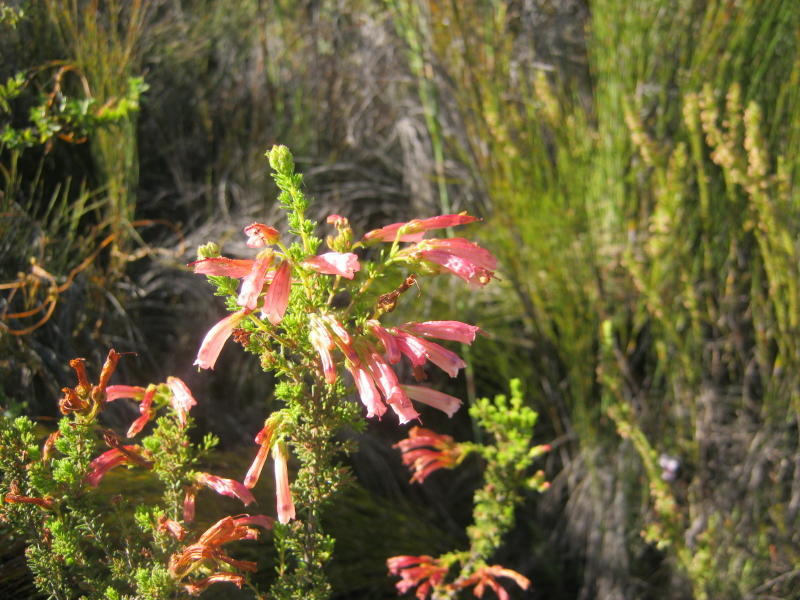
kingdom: Plantae
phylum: Tracheophyta
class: Magnoliopsida
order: Ericales
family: Ericaceae
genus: Erica
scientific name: Erica glandulosa
